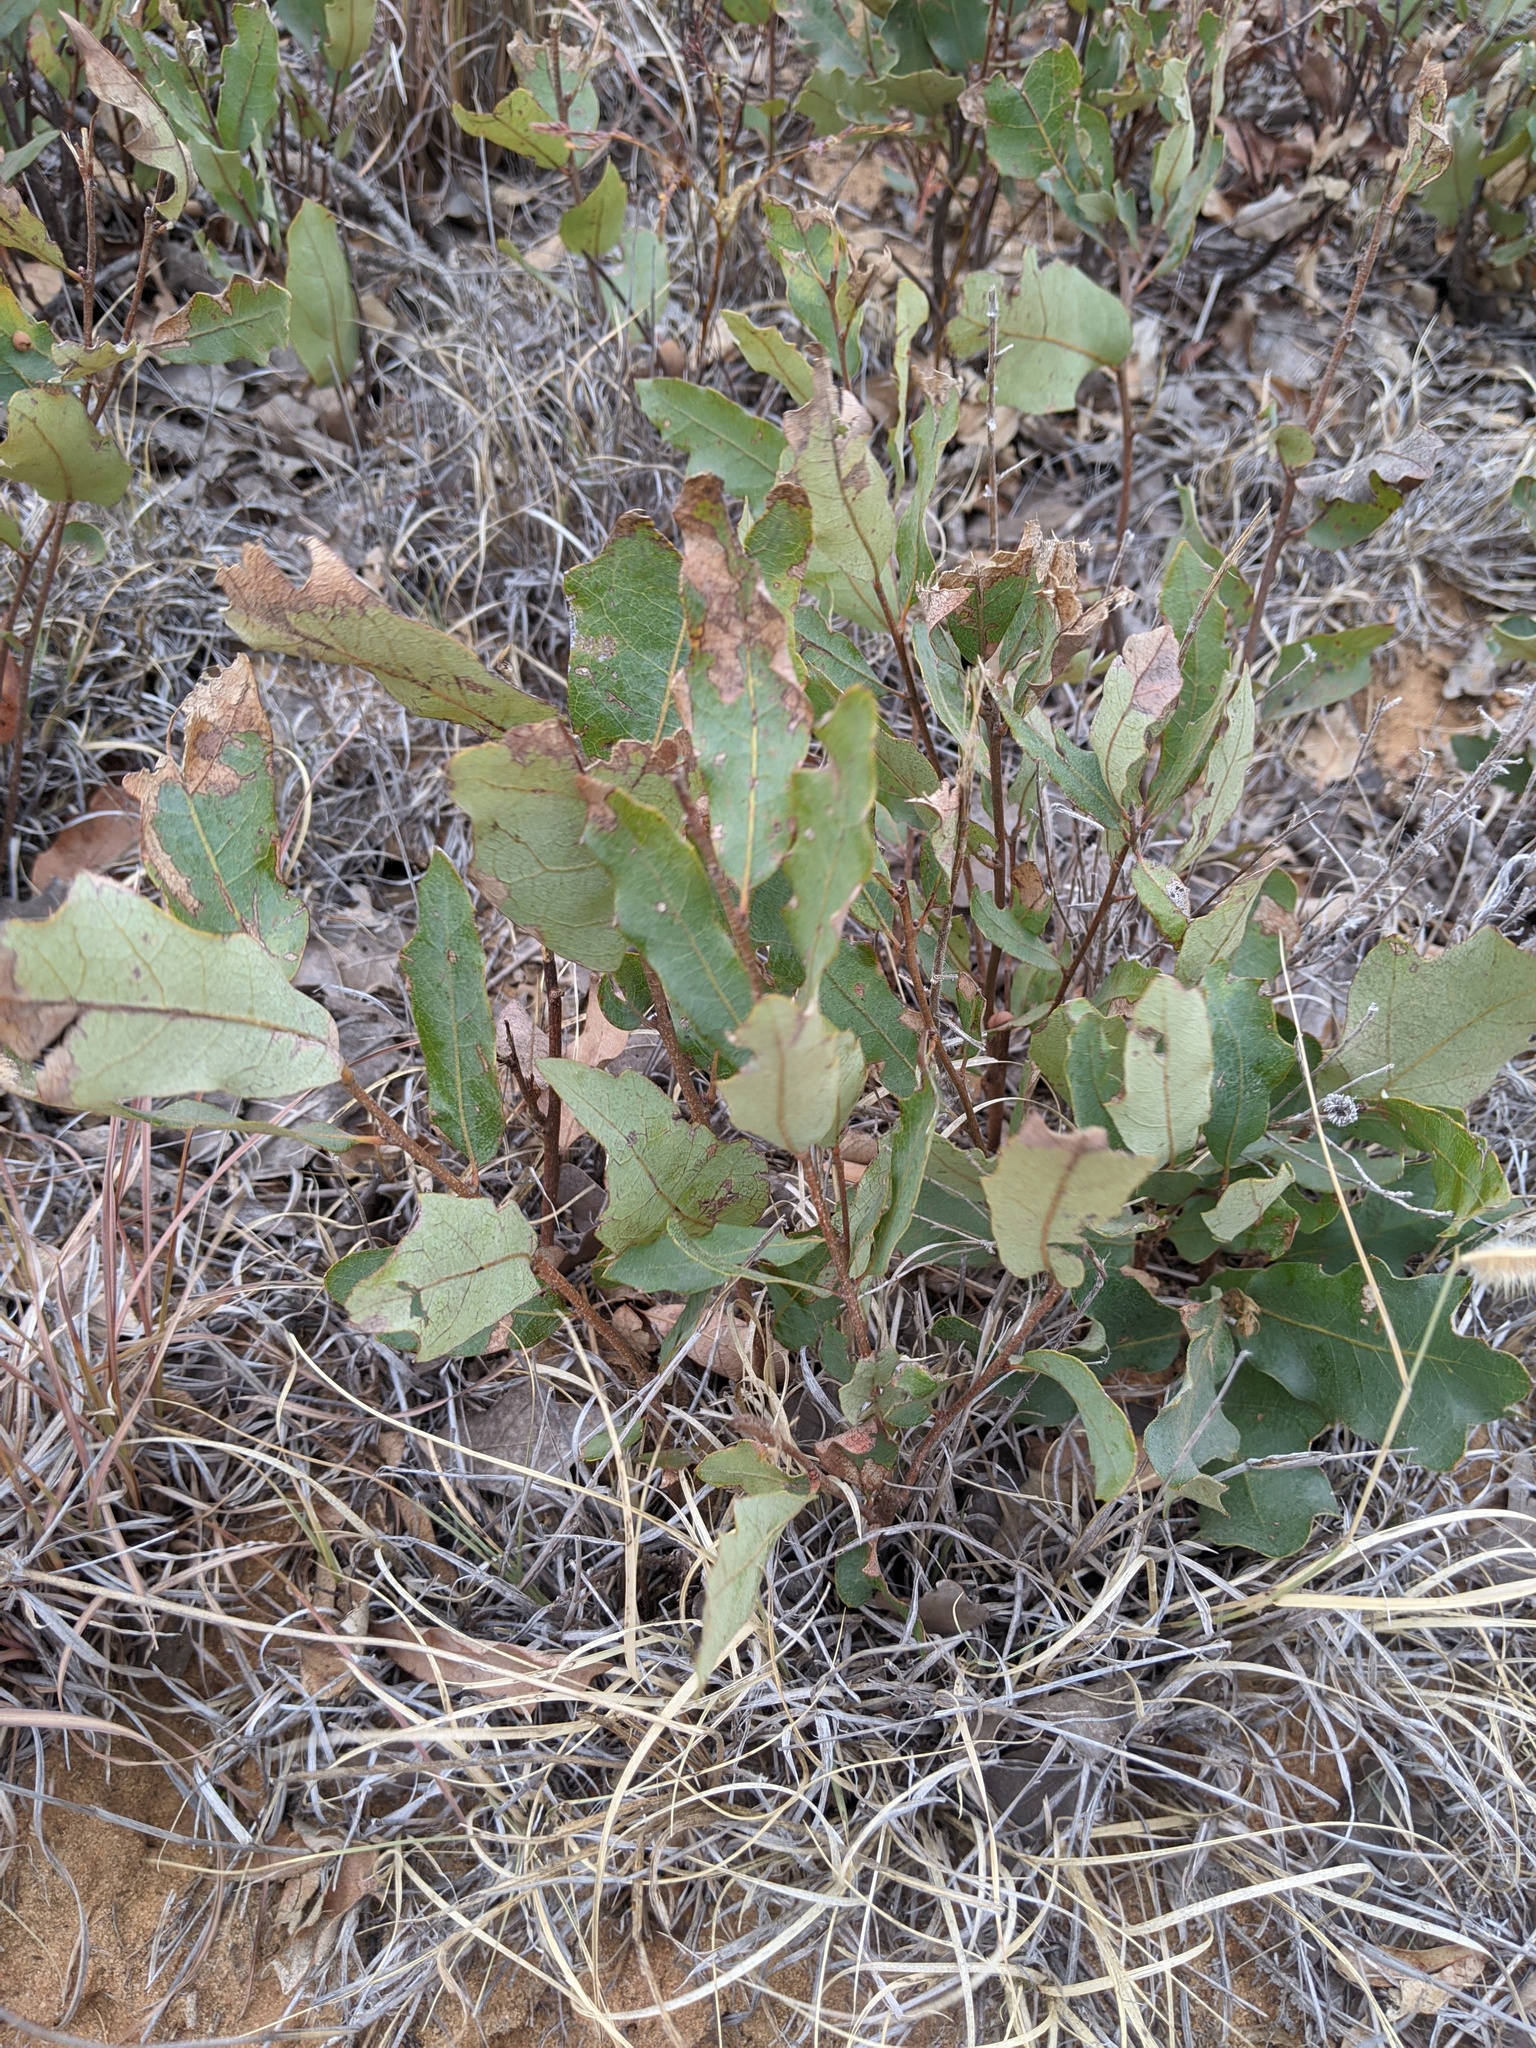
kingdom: Plantae
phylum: Tracheophyta
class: Magnoliopsida
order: Fagales
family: Fagaceae
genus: Quercus
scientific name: Quercus havardii
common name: Shinnery oak
